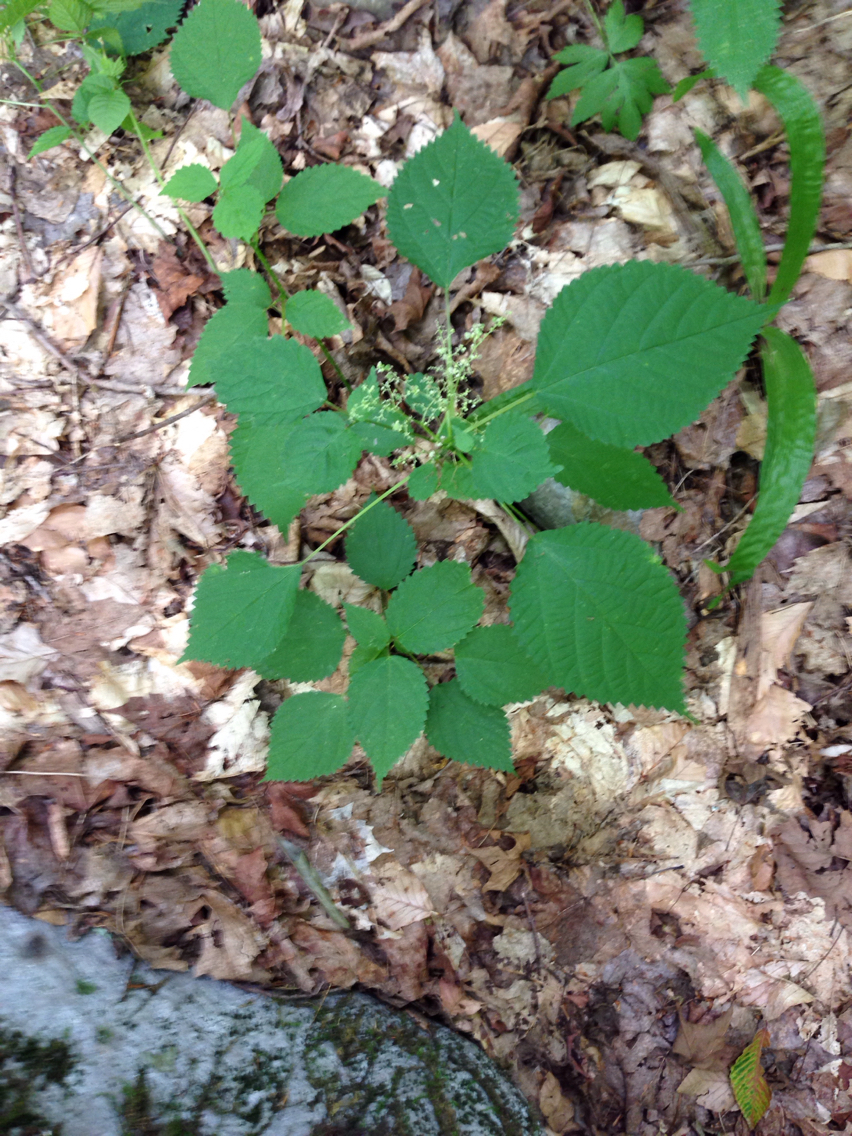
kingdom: Plantae
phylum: Tracheophyta
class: Magnoliopsida
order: Rosales
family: Urticaceae
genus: Laportea
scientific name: Laportea canadensis
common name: Canada nettle
